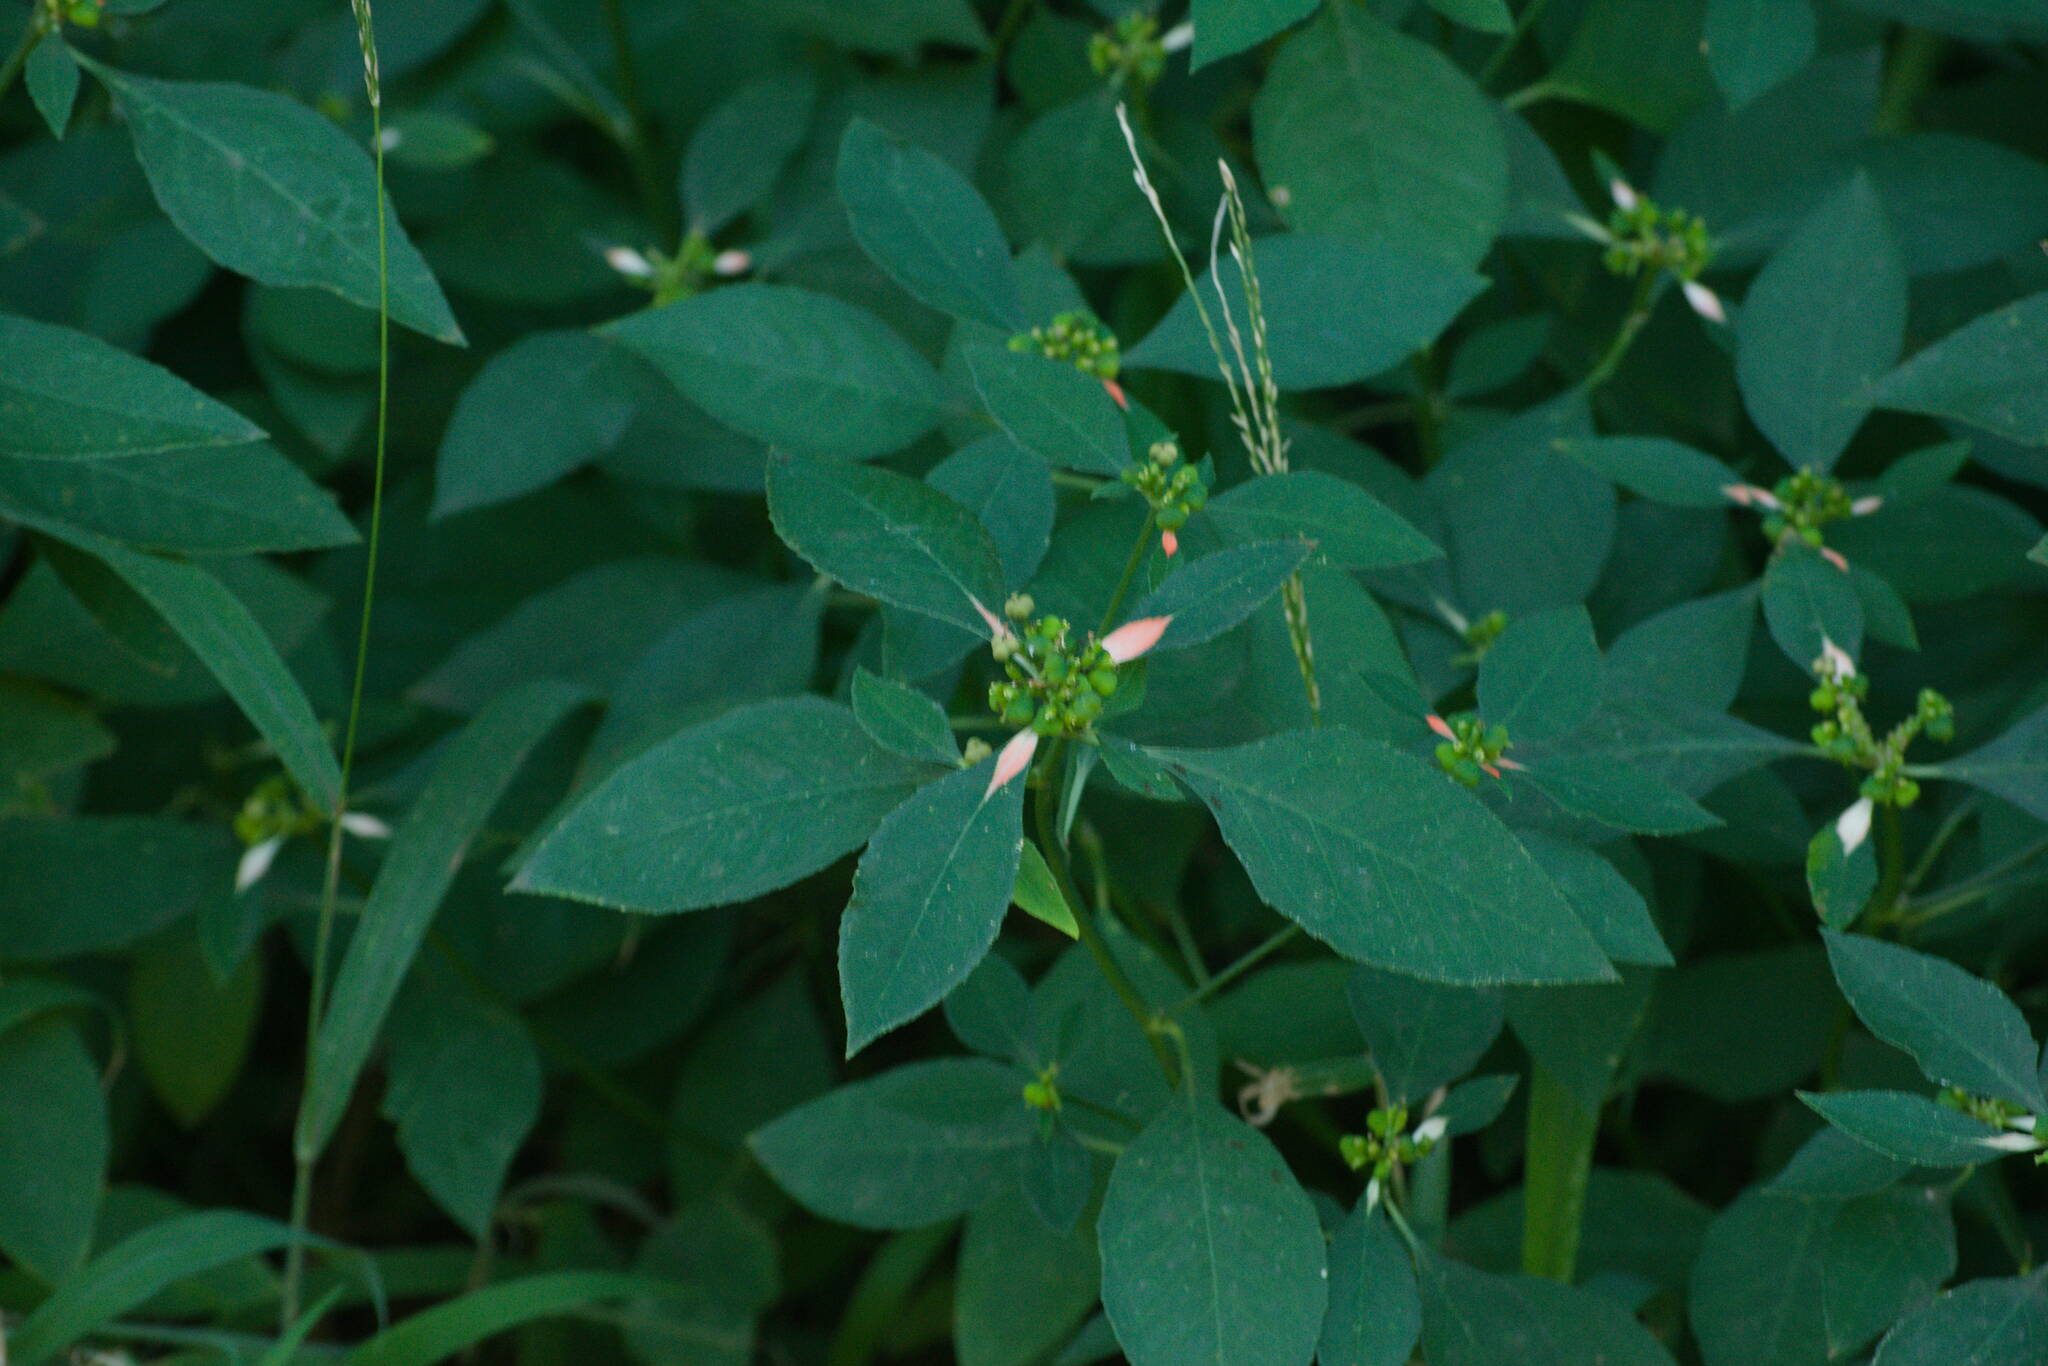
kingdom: Plantae
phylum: Tracheophyta
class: Magnoliopsida
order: Malpighiales
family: Euphorbiaceae
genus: Euphorbia
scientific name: Euphorbia heterophylla
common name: Mexican fireplant
